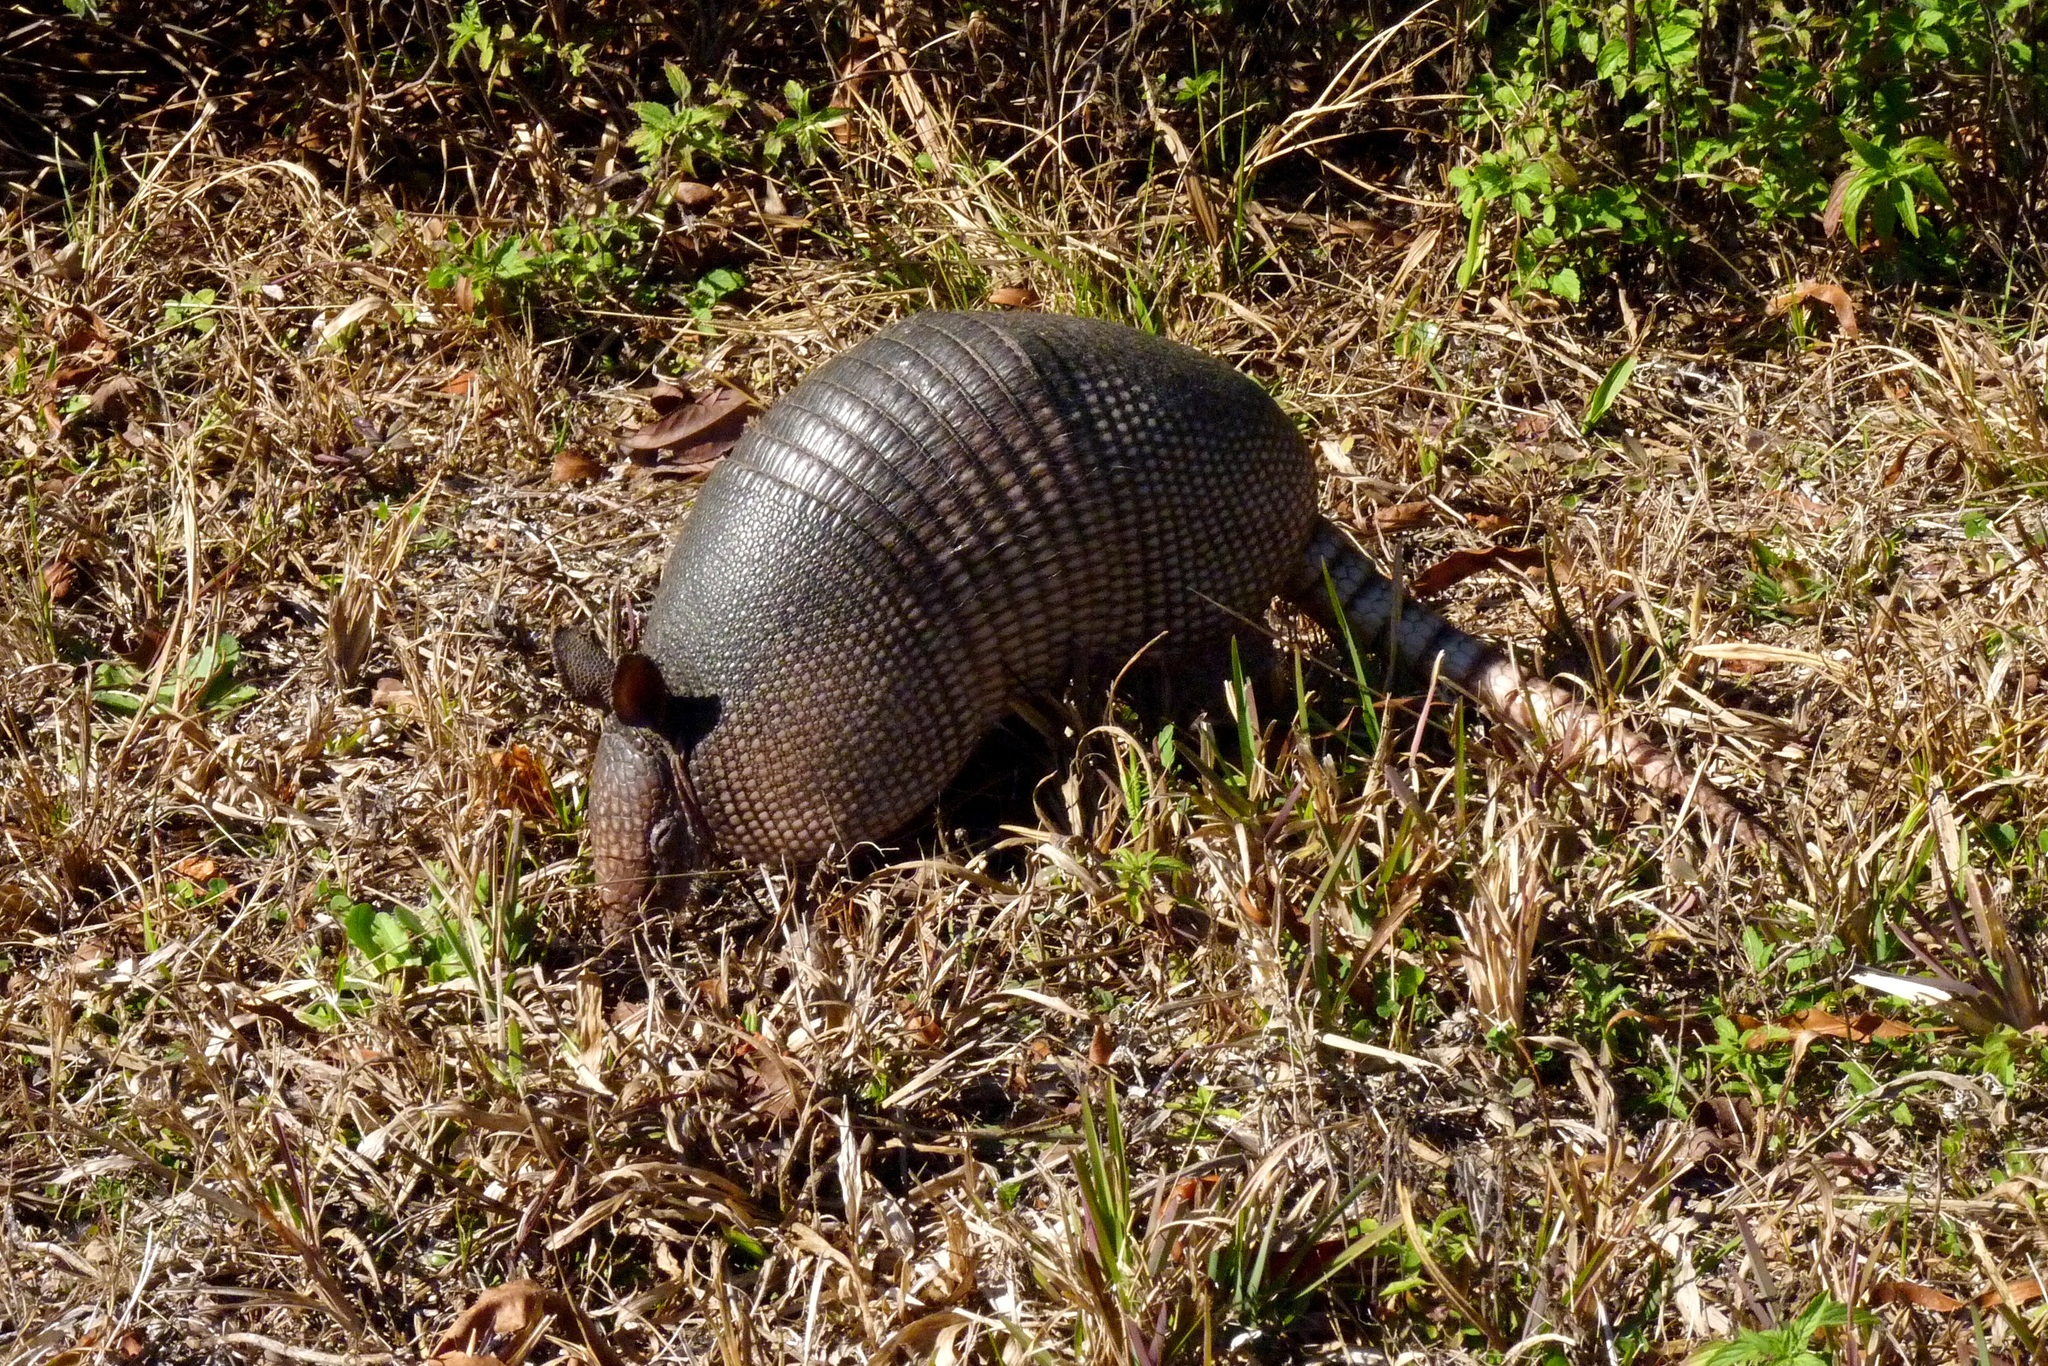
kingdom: Animalia
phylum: Chordata
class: Mammalia
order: Cingulata
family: Dasypodidae
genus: Dasypus
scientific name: Dasypus novemcinctus
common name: Nine-banded armadillo
